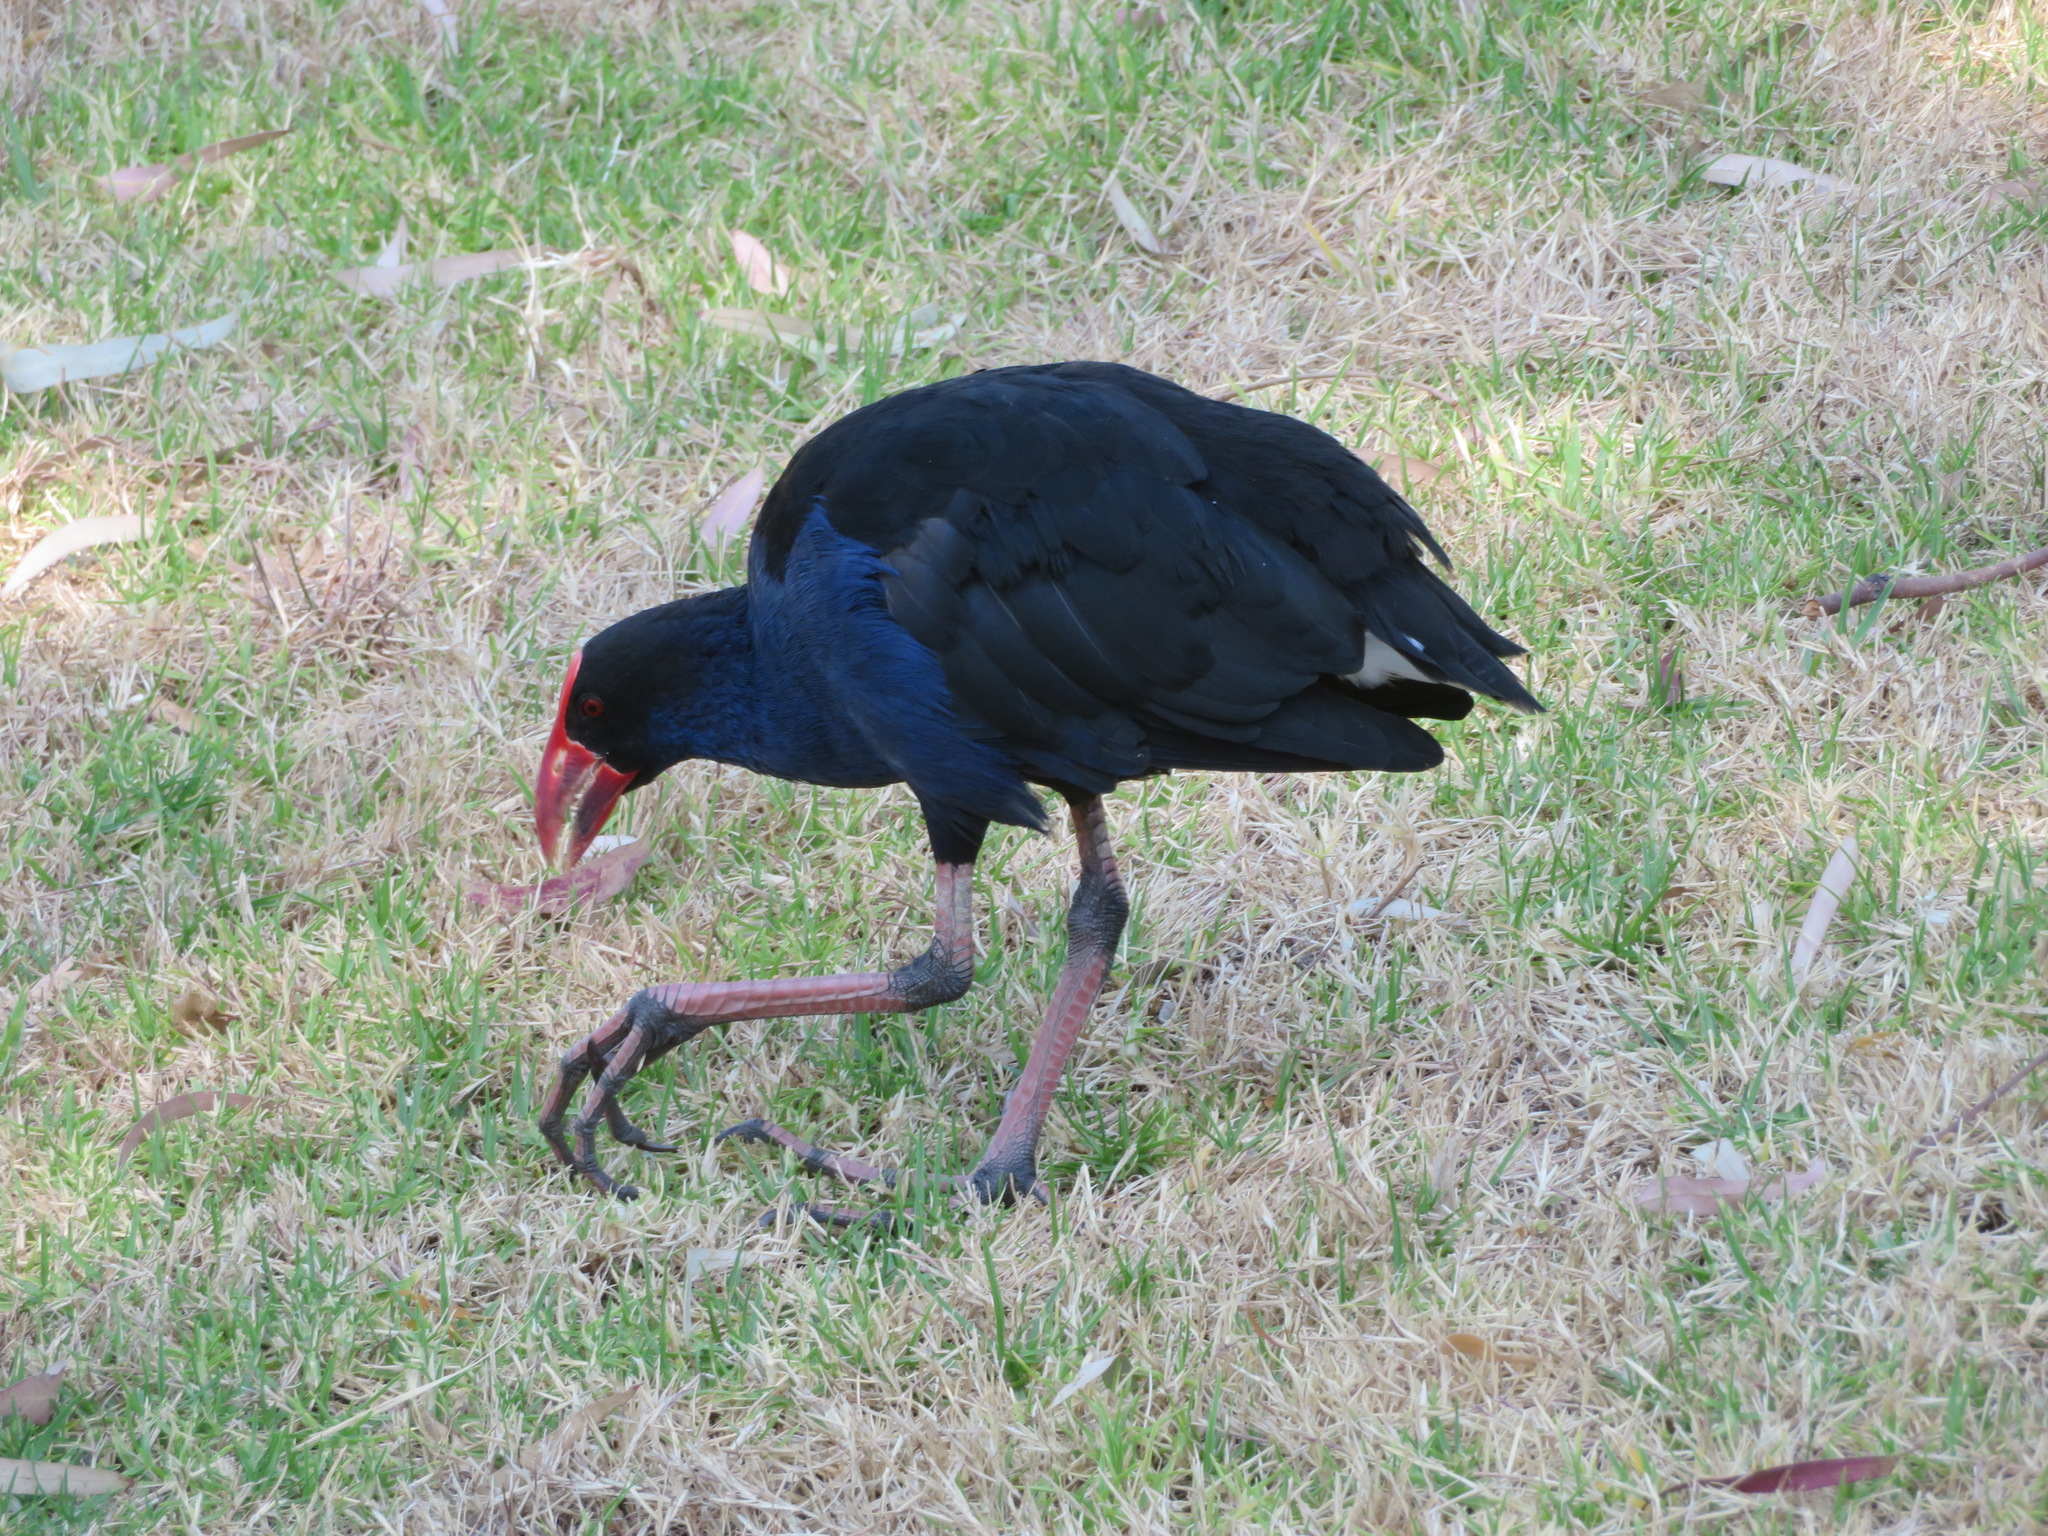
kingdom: Animalia
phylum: Chordata
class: Aves
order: Gruiformes
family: Rallidae
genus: Porphyrio
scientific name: Porphyrio melanotus
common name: Australasian swamphen
